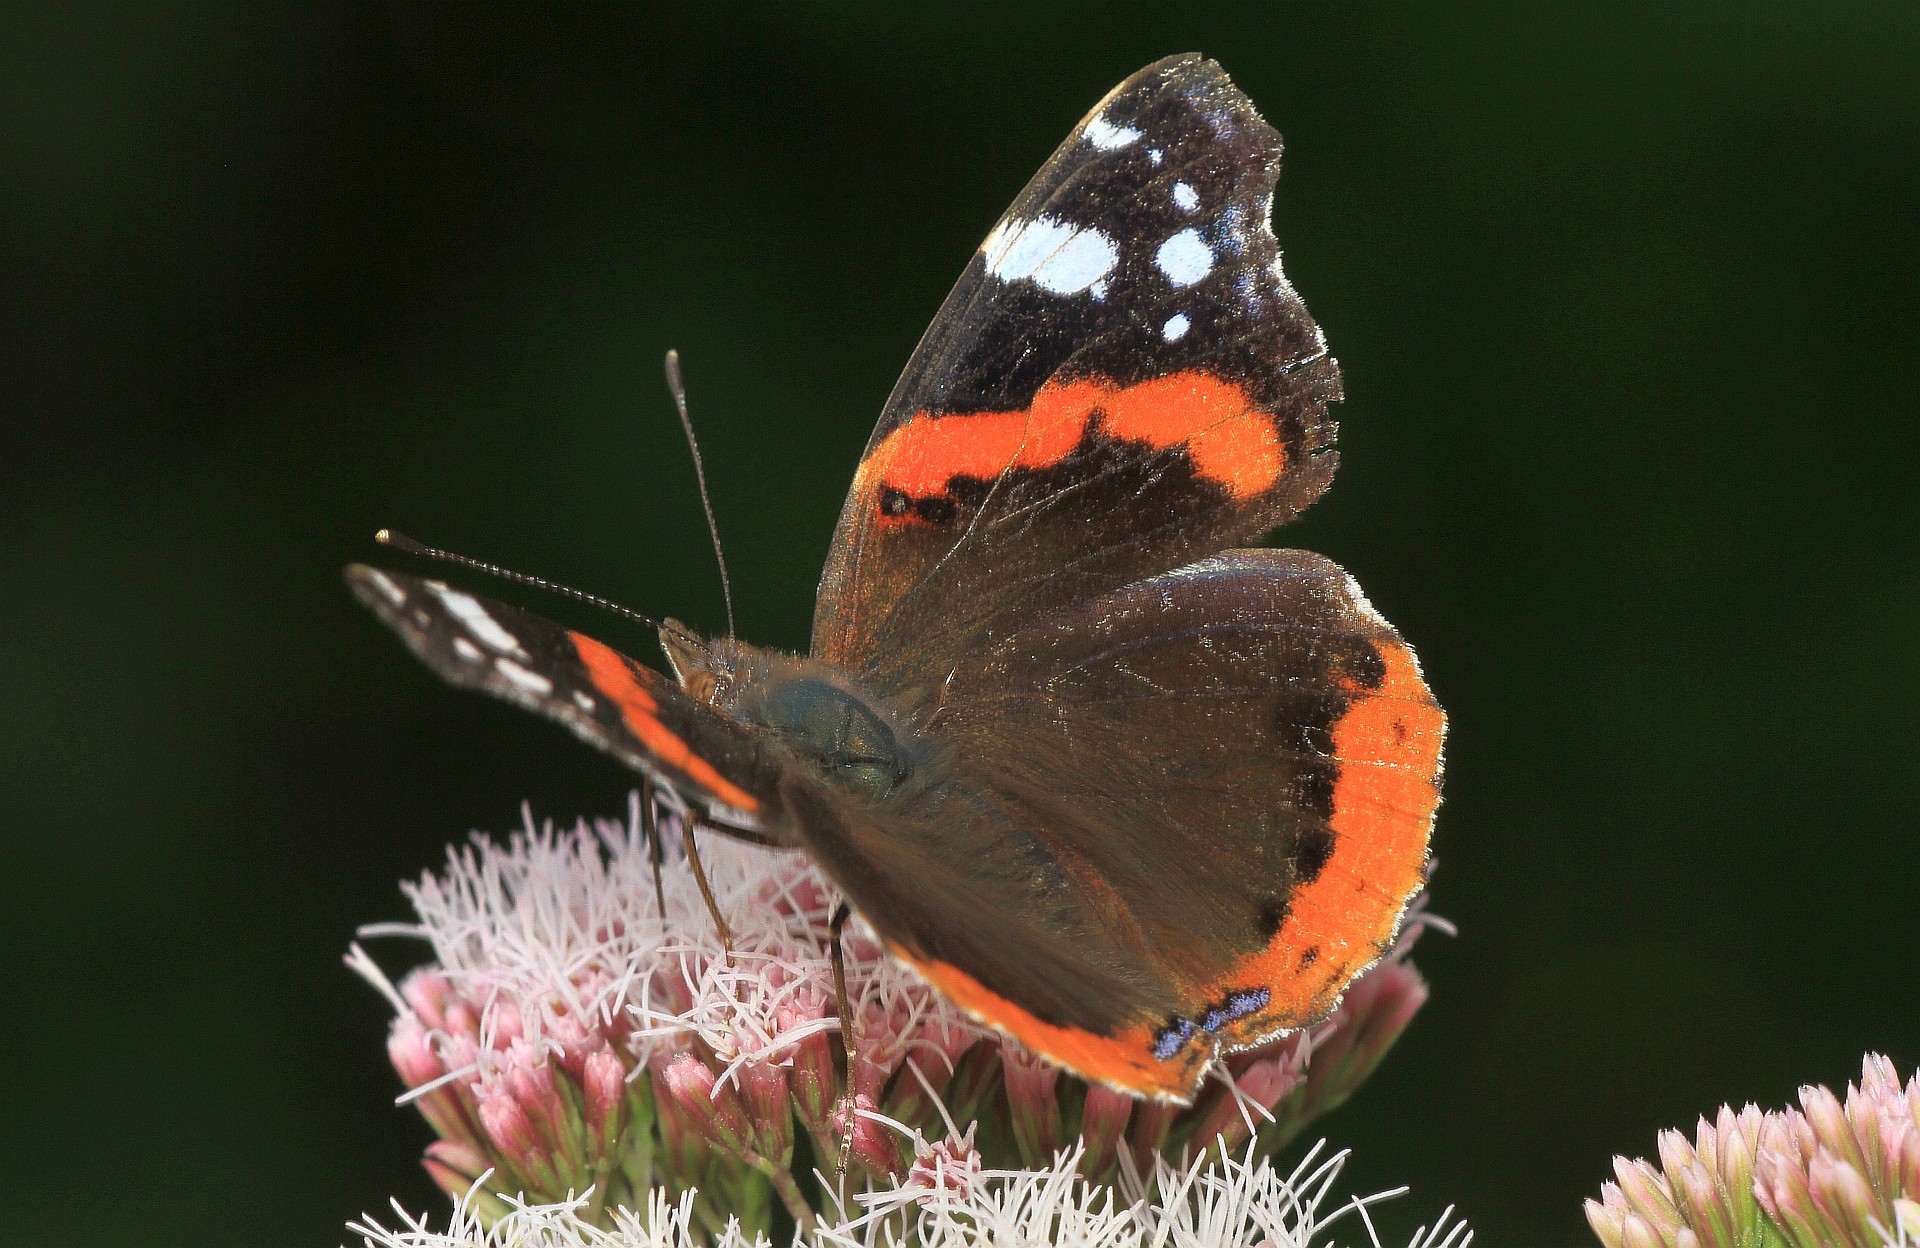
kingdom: Animalia
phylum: Arthropoda
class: Insecta
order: Lepidoptera
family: Nymphalidae
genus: Vanessa
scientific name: Vanessa atalanta
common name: Red admiral
